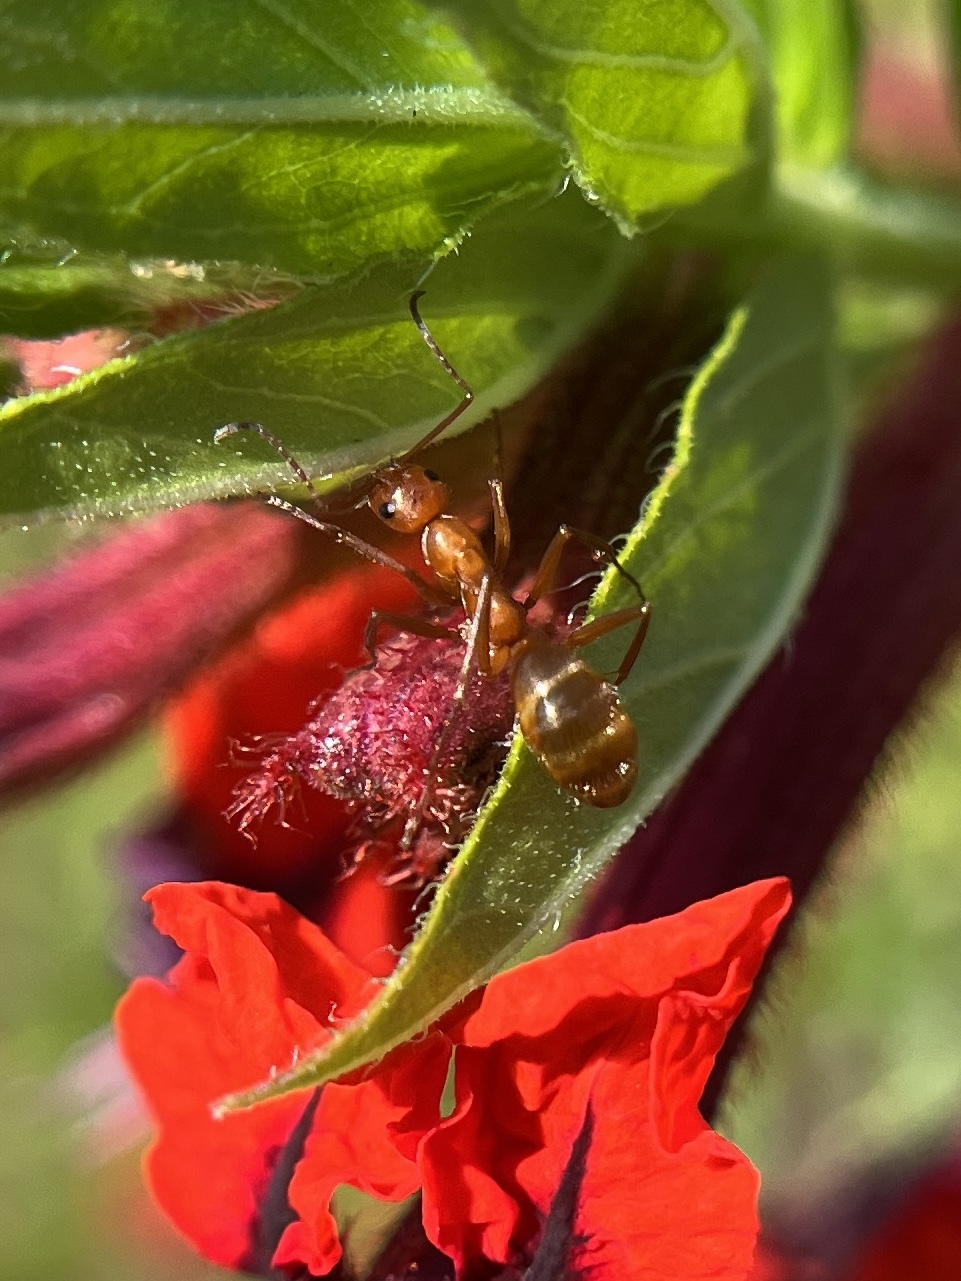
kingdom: Animalia
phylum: Arthropoda
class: Insecta
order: Hymenoptera
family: Formicidae
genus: Formica
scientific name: Formica
